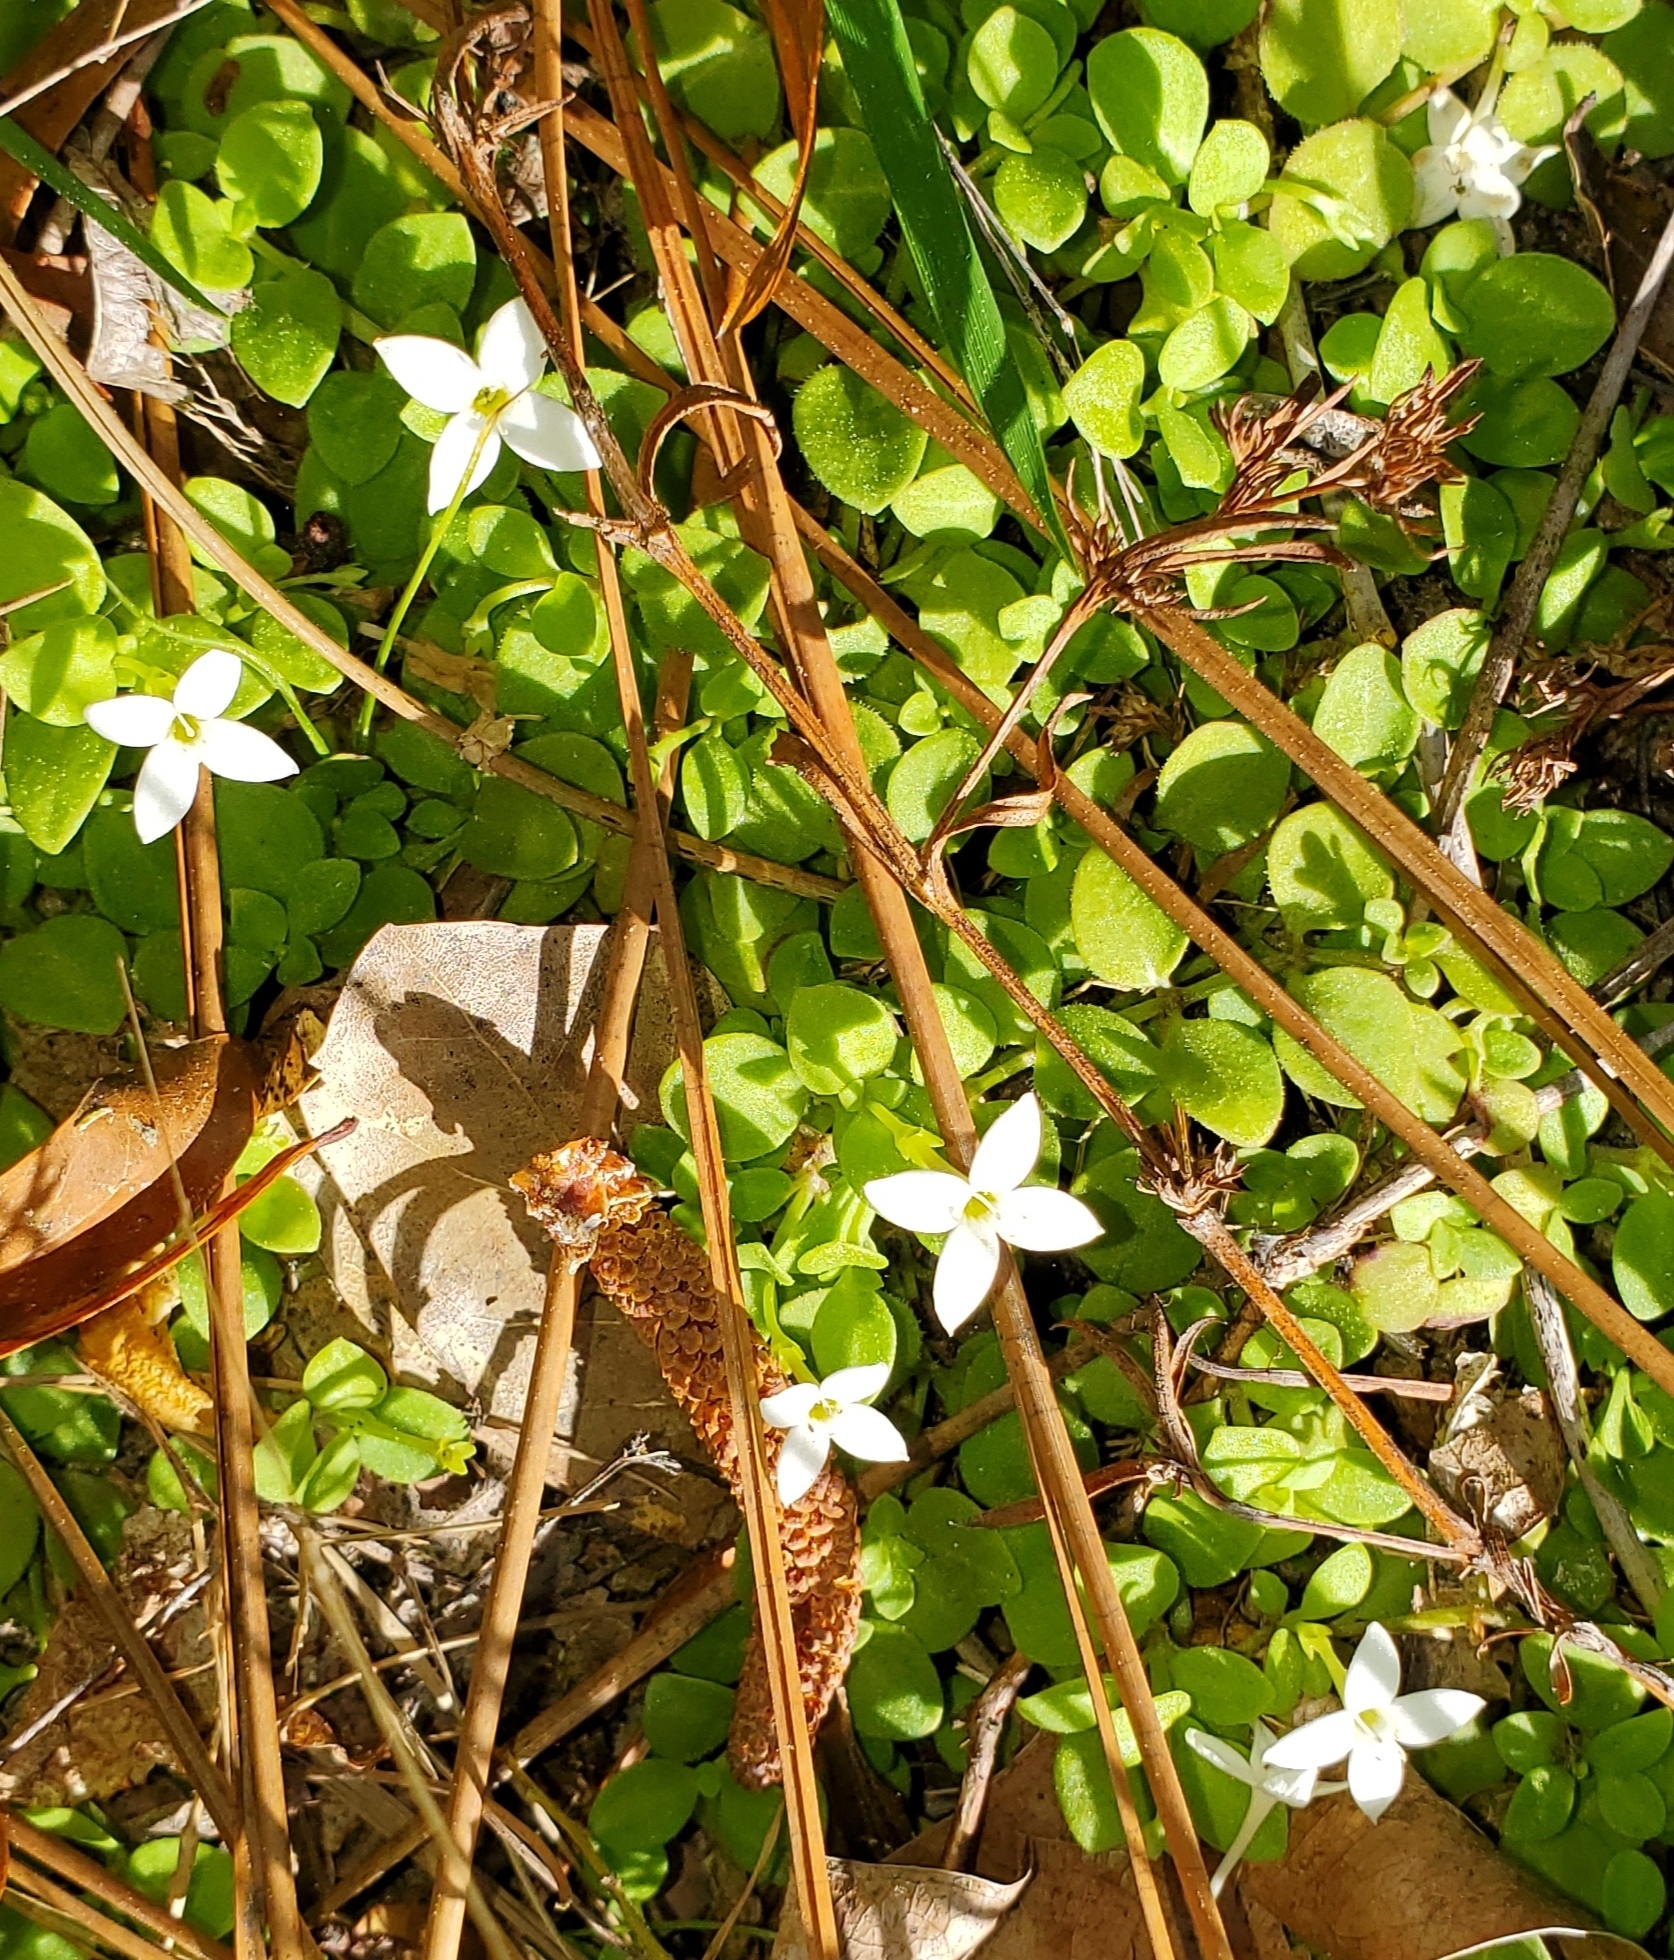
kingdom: Plantae
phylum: Tracheophyta
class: Magnoliopsida
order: Gentianales
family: Rubiaceae
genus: Houstonia
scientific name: Houstonia procumbens
